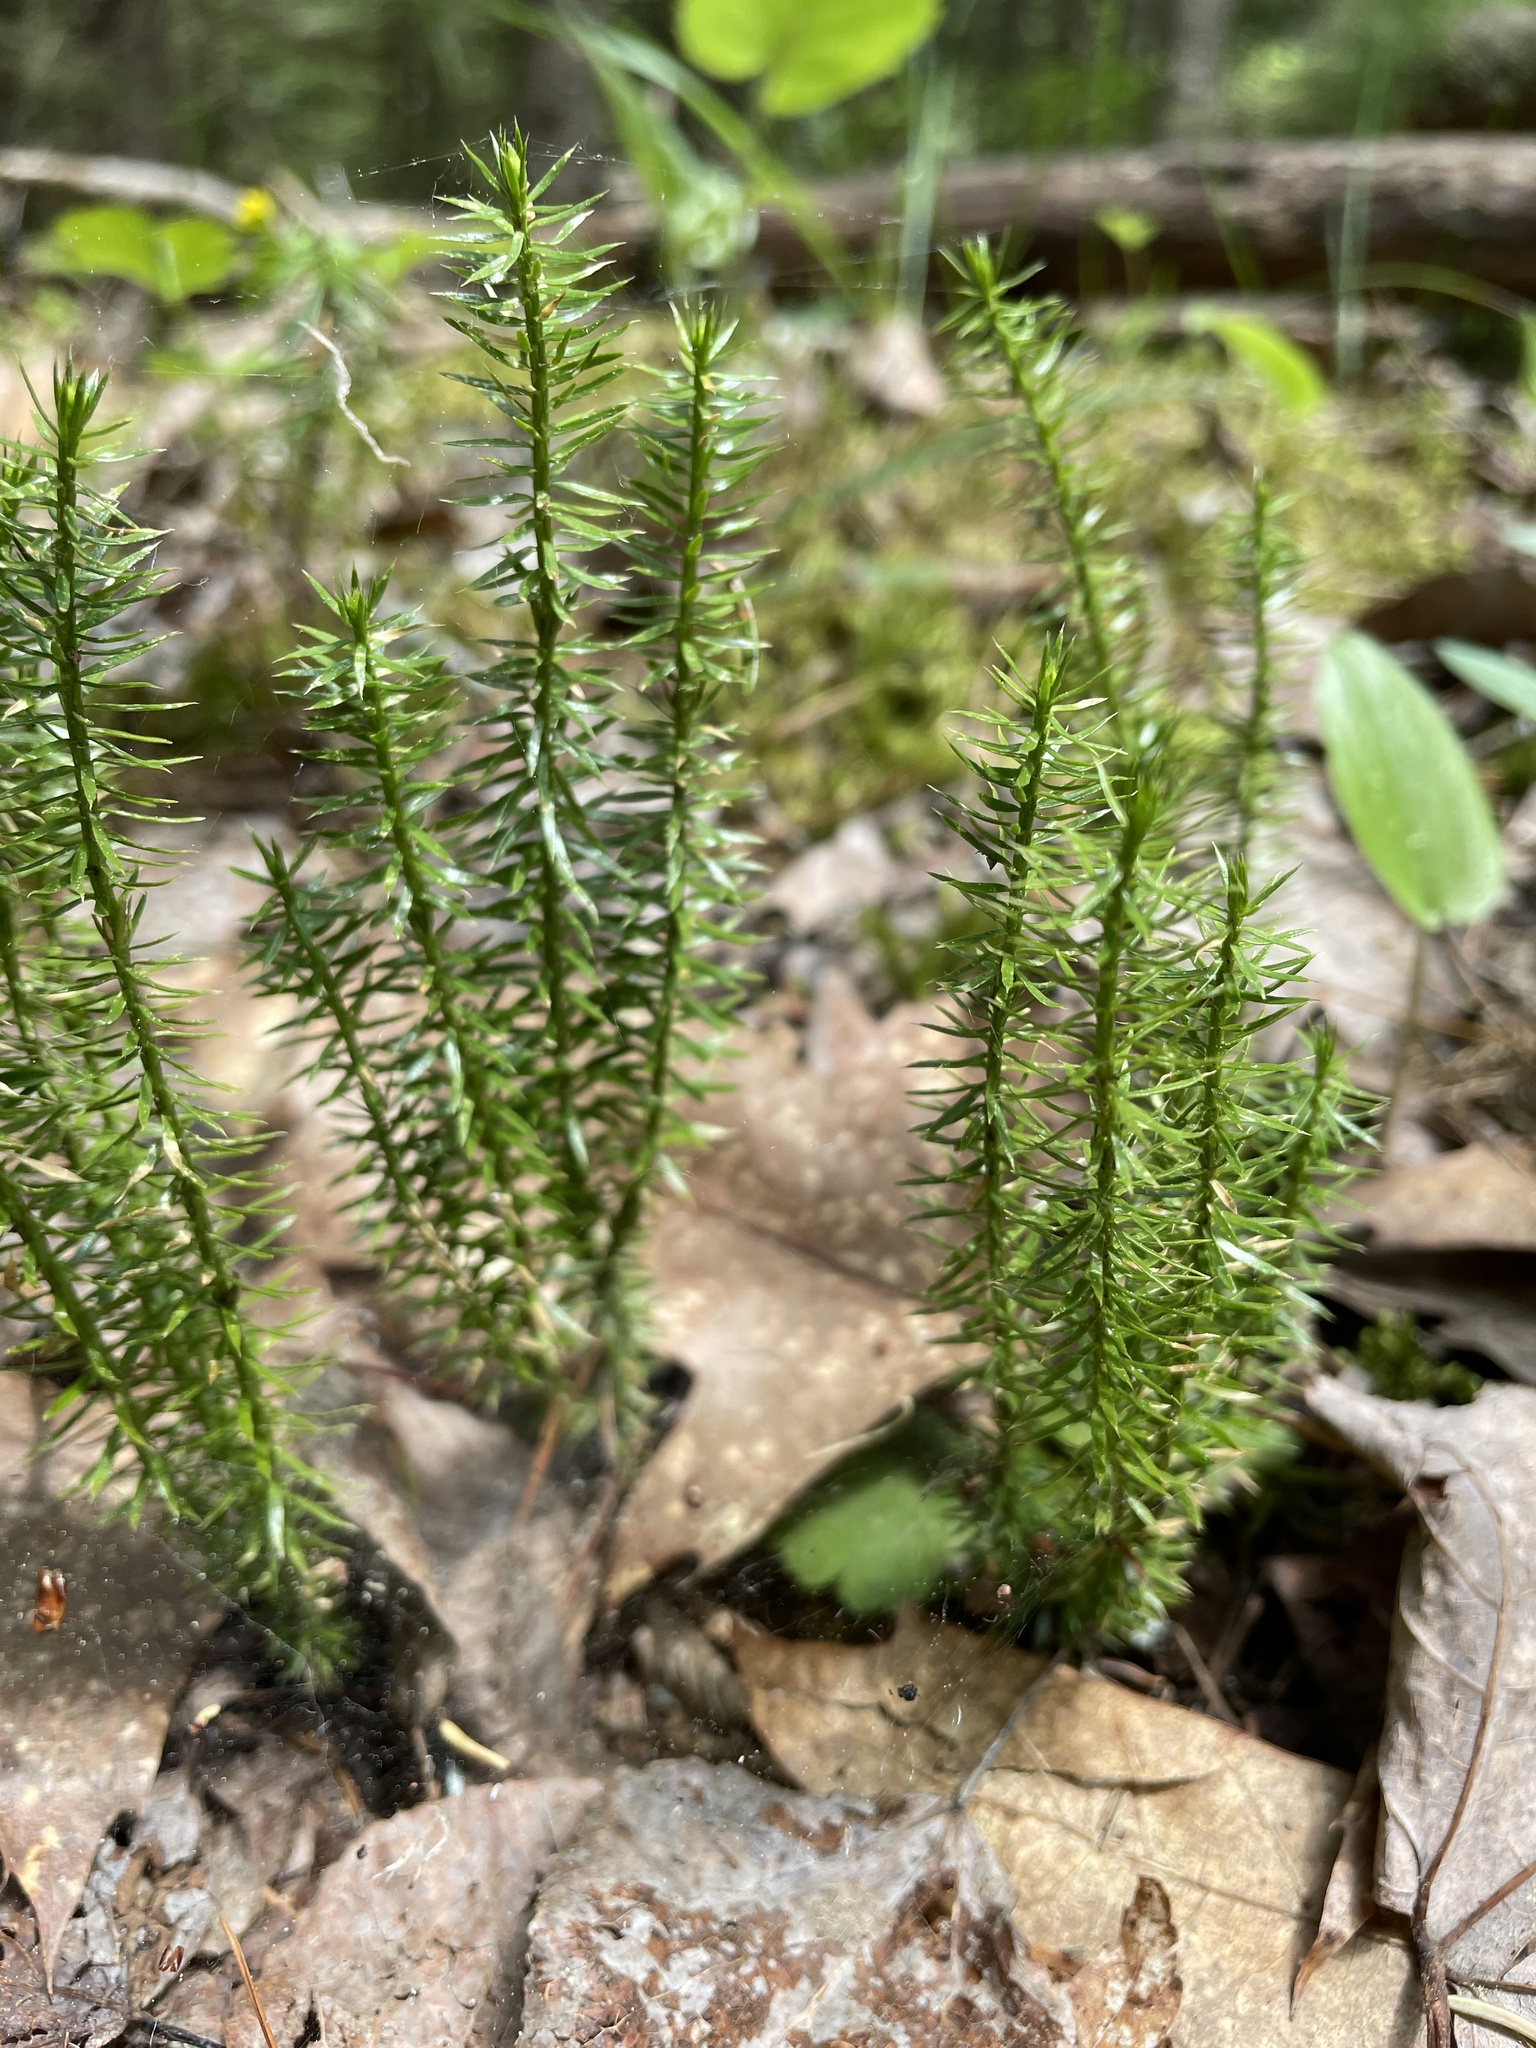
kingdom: Plantae
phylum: Tracheophyta
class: Lycopodiopsida
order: Lycopodiales
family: Lycopodiaceae
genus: Spinulum
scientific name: Spinulum annotinum
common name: Interrupted club-moss
